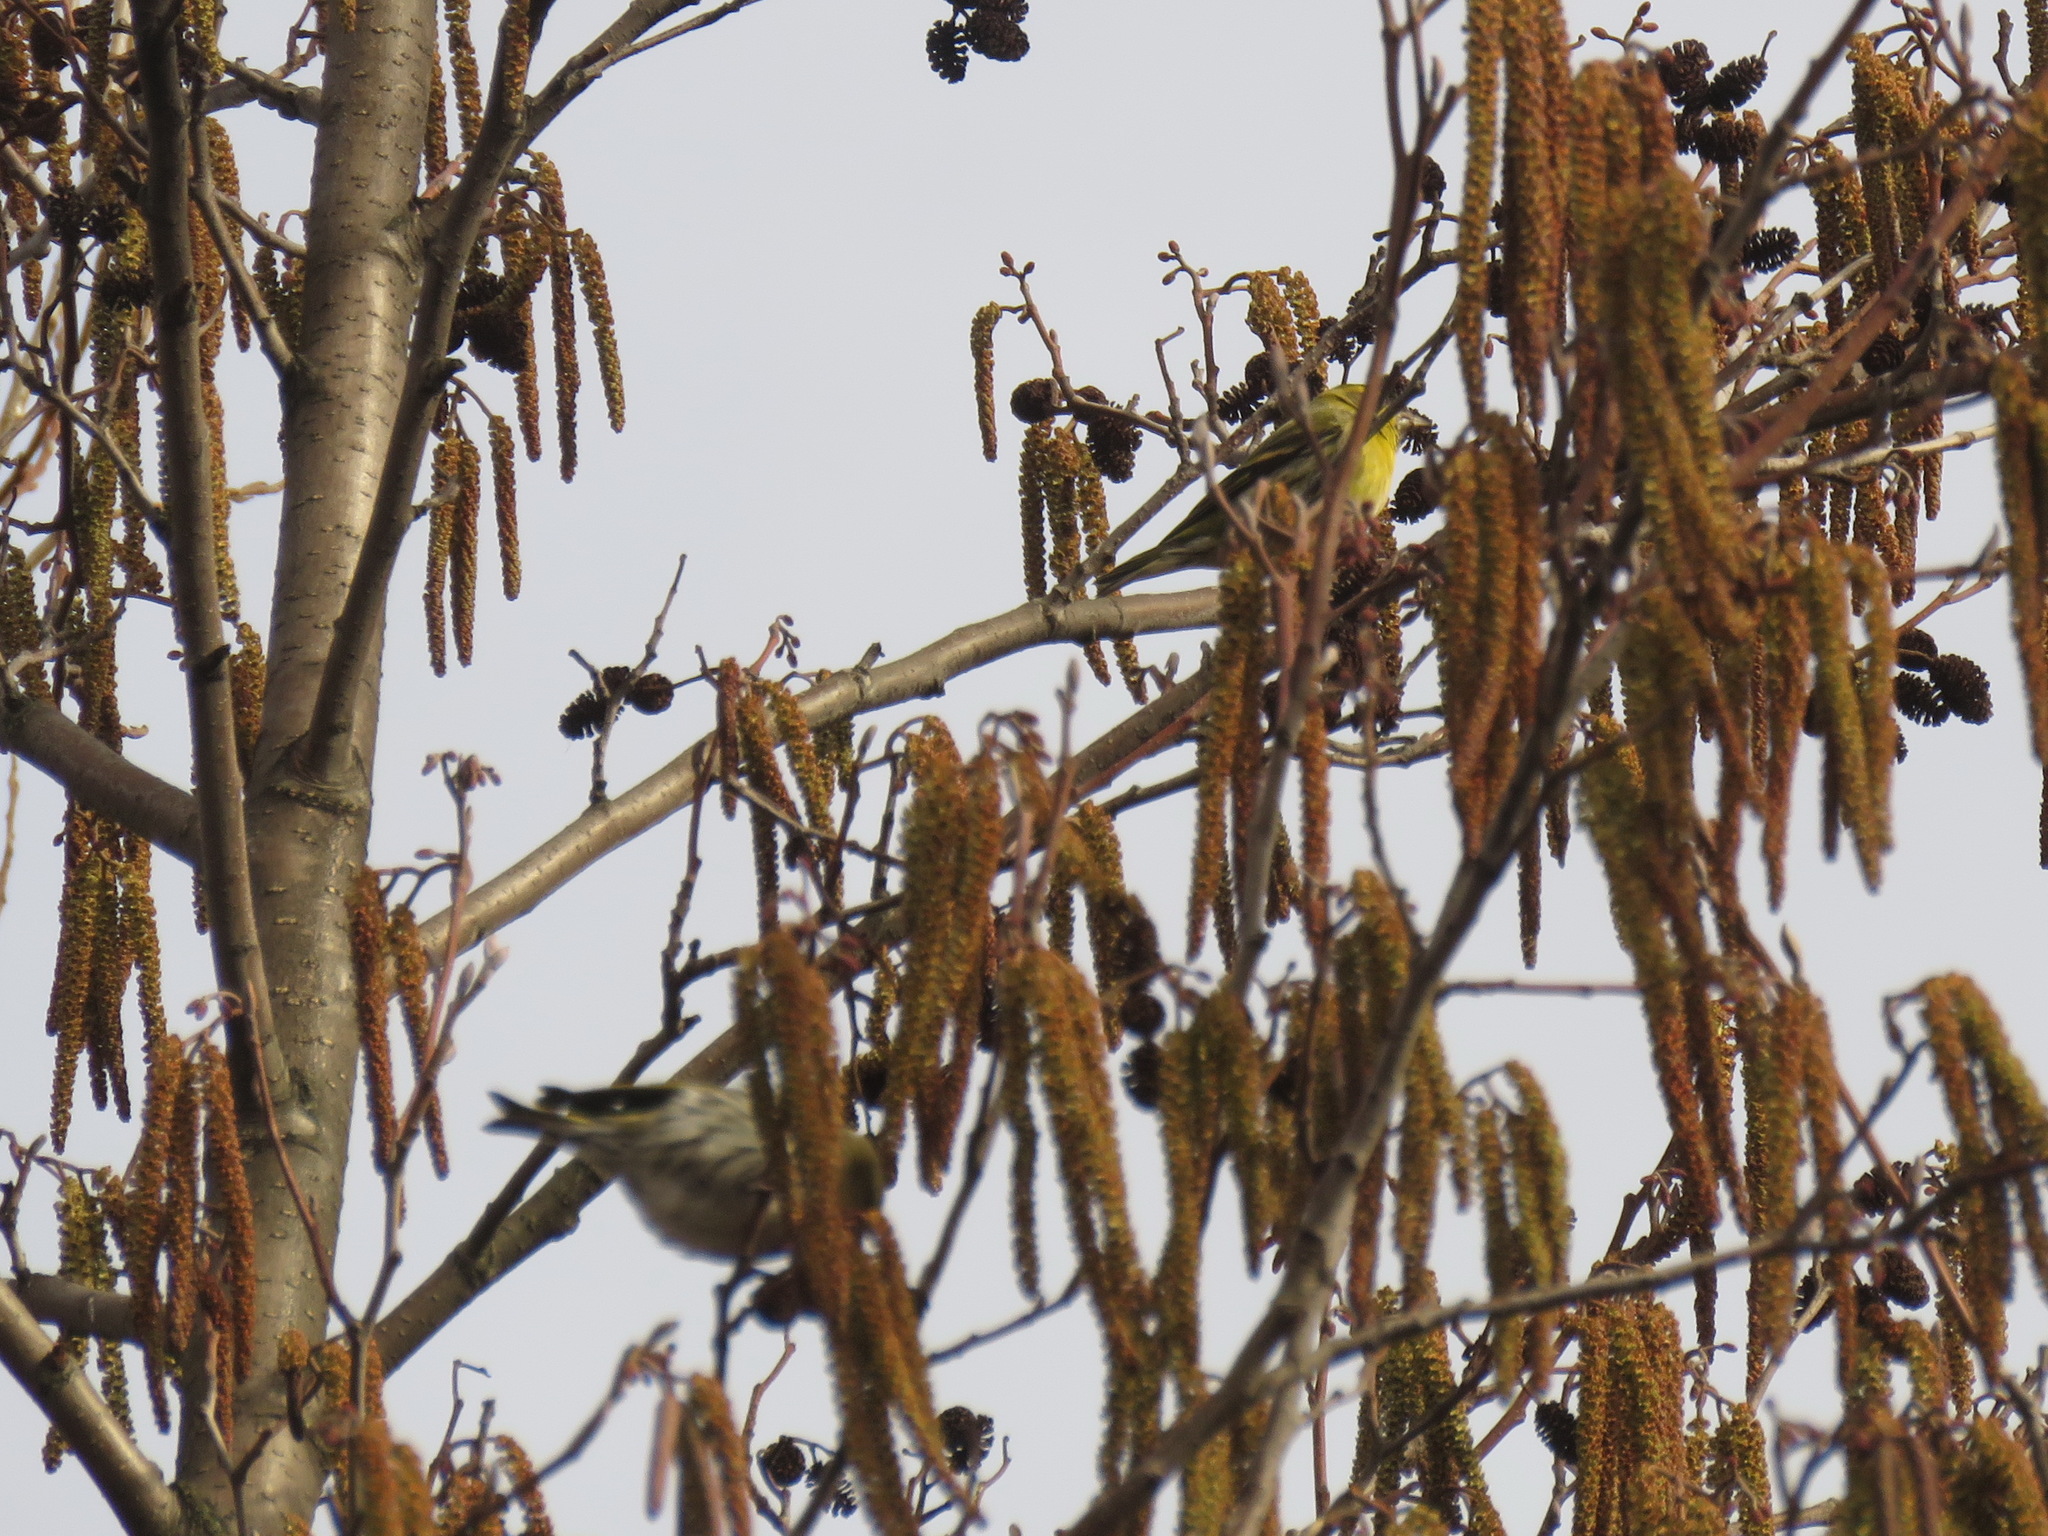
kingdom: Animalia
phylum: Chordata
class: Aves
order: Passeriformes
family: Fringillidae
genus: Spinus
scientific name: Spinus spinus
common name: Eurasian siskin
